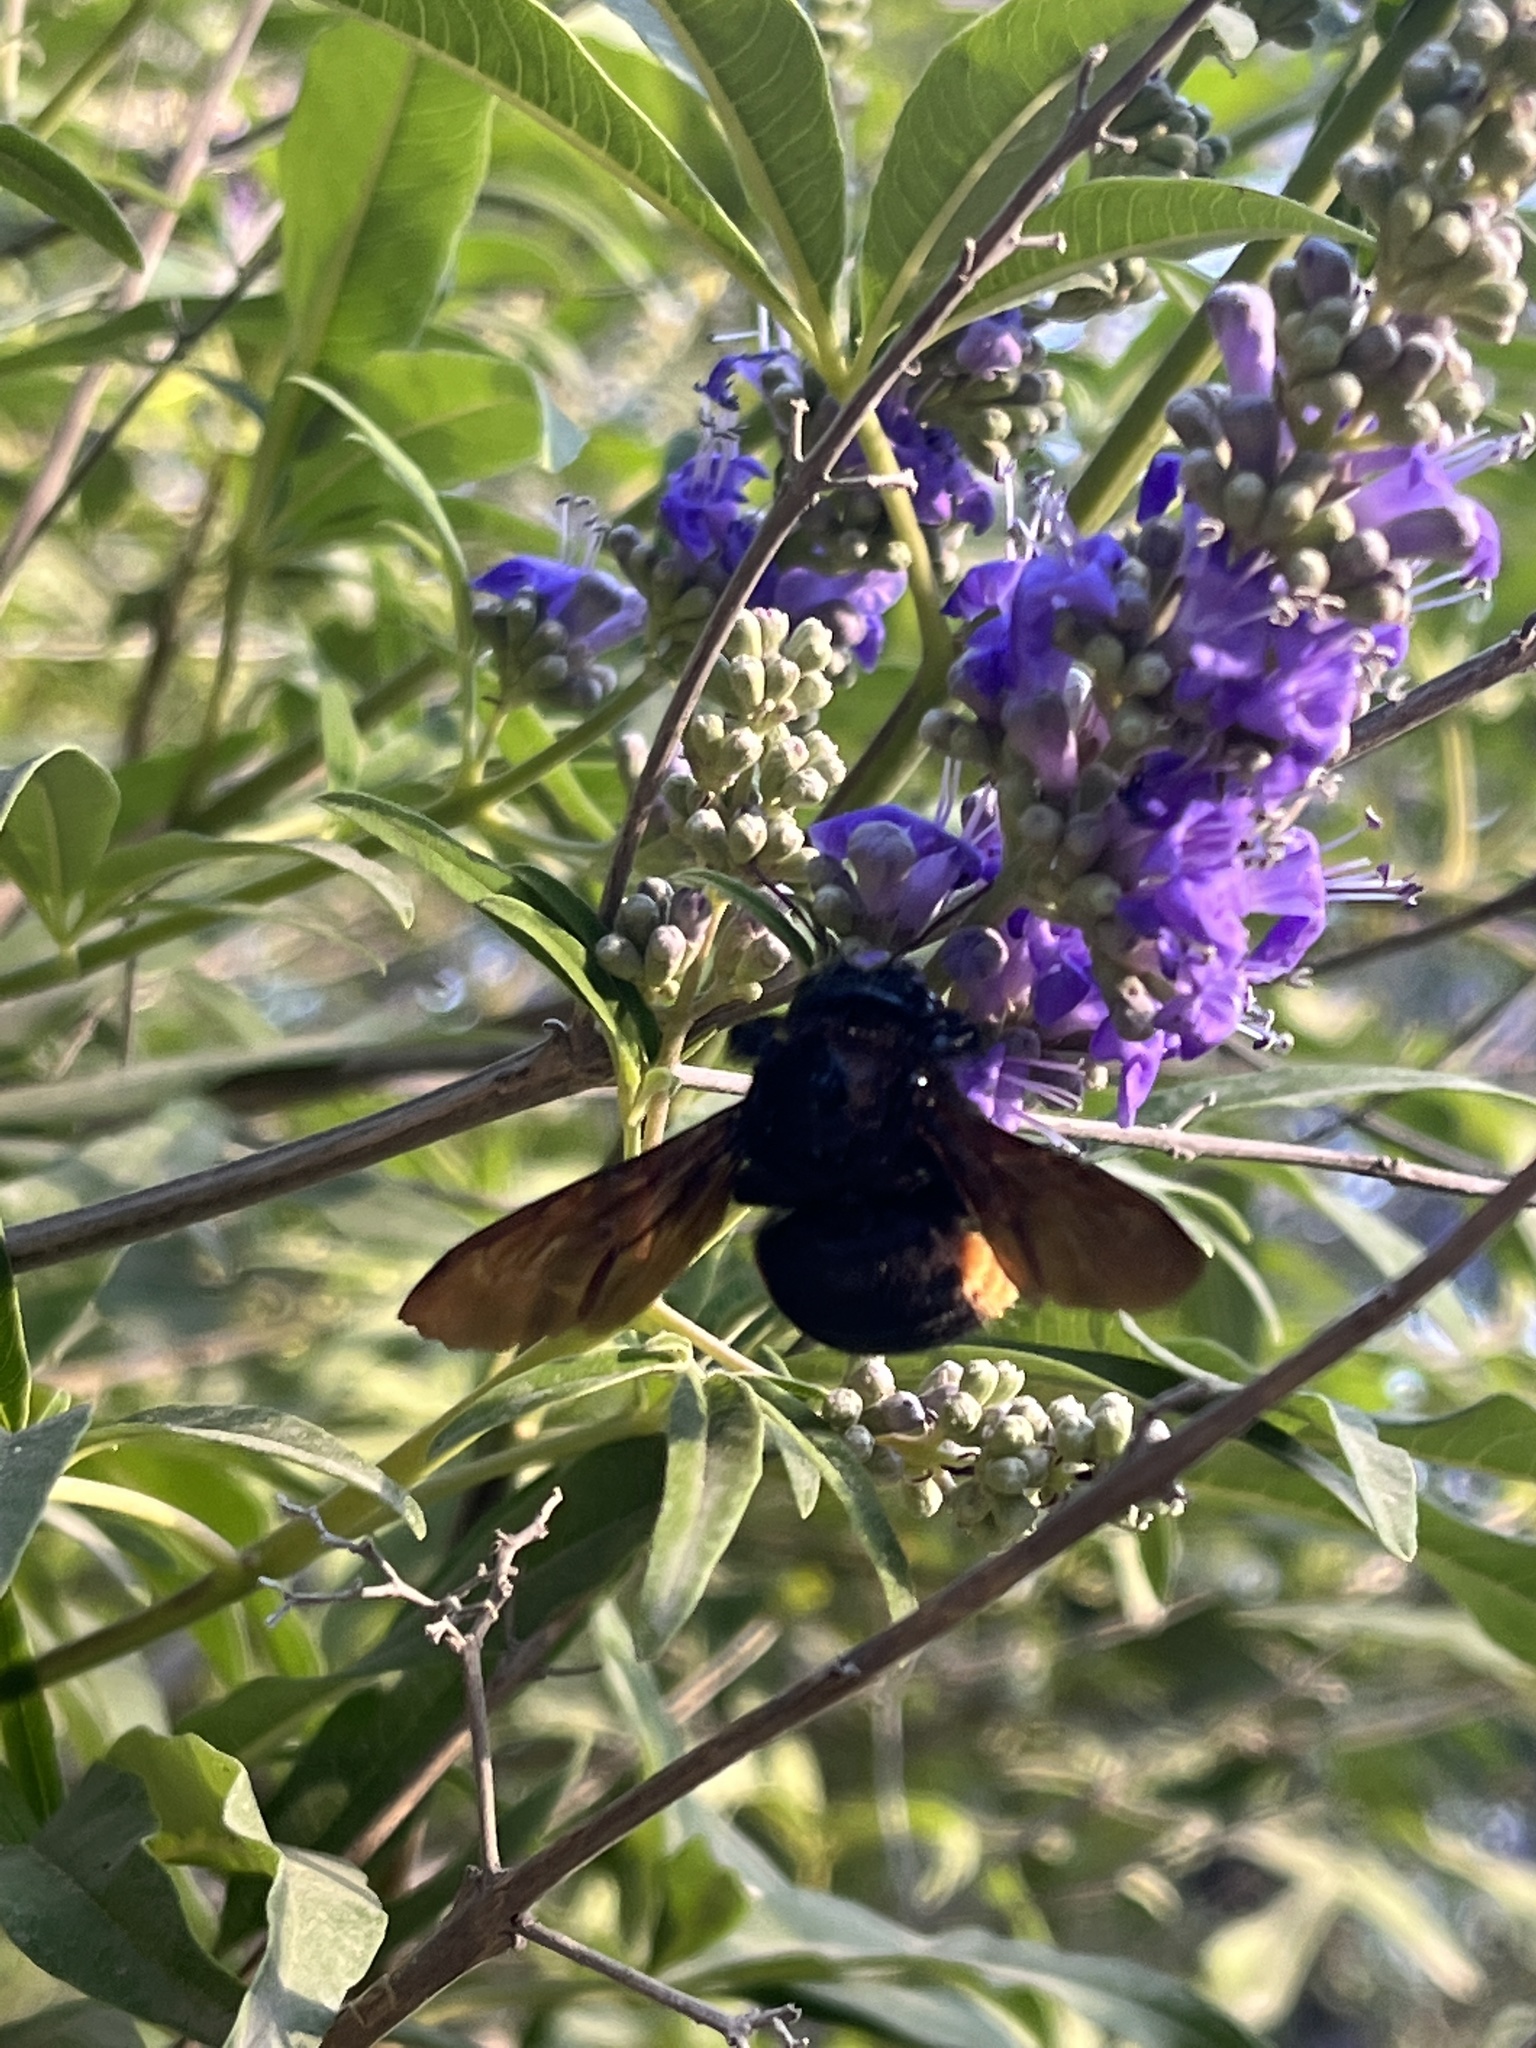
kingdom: Animalia
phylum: Arthropoda
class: Insecta
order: Hymenoptera
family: Apidae
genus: Xylocopa
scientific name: Xylocopa augusti
